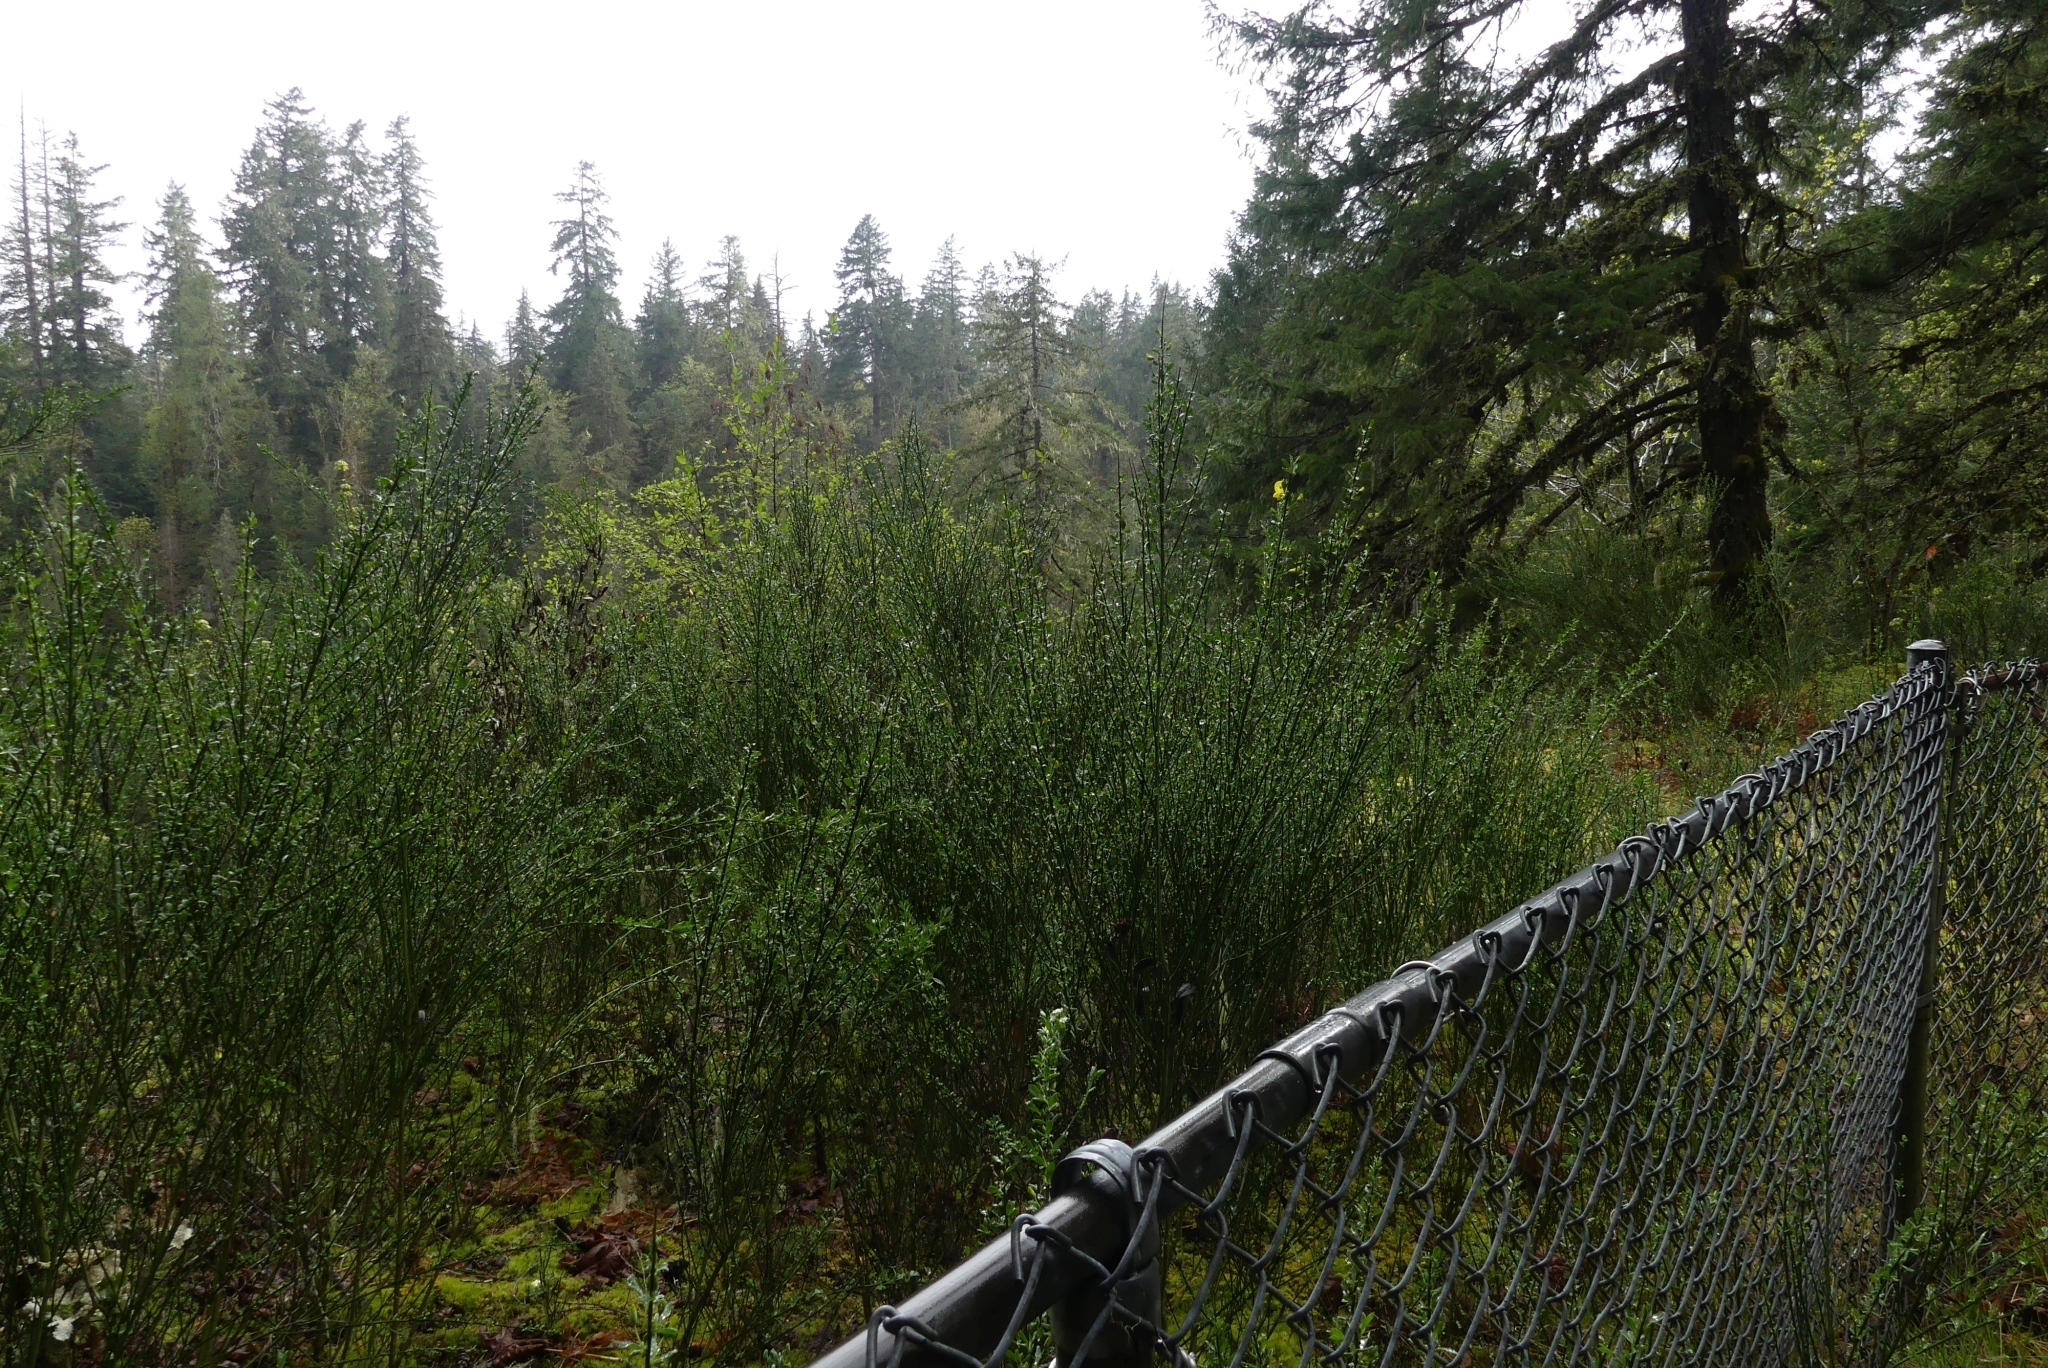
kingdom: Plantae
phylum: Tracheophyta
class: Magnoliopsida
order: Fabales
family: Fabaceae
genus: Cytisus
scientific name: Cytisus scoparius
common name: Scotch broom
